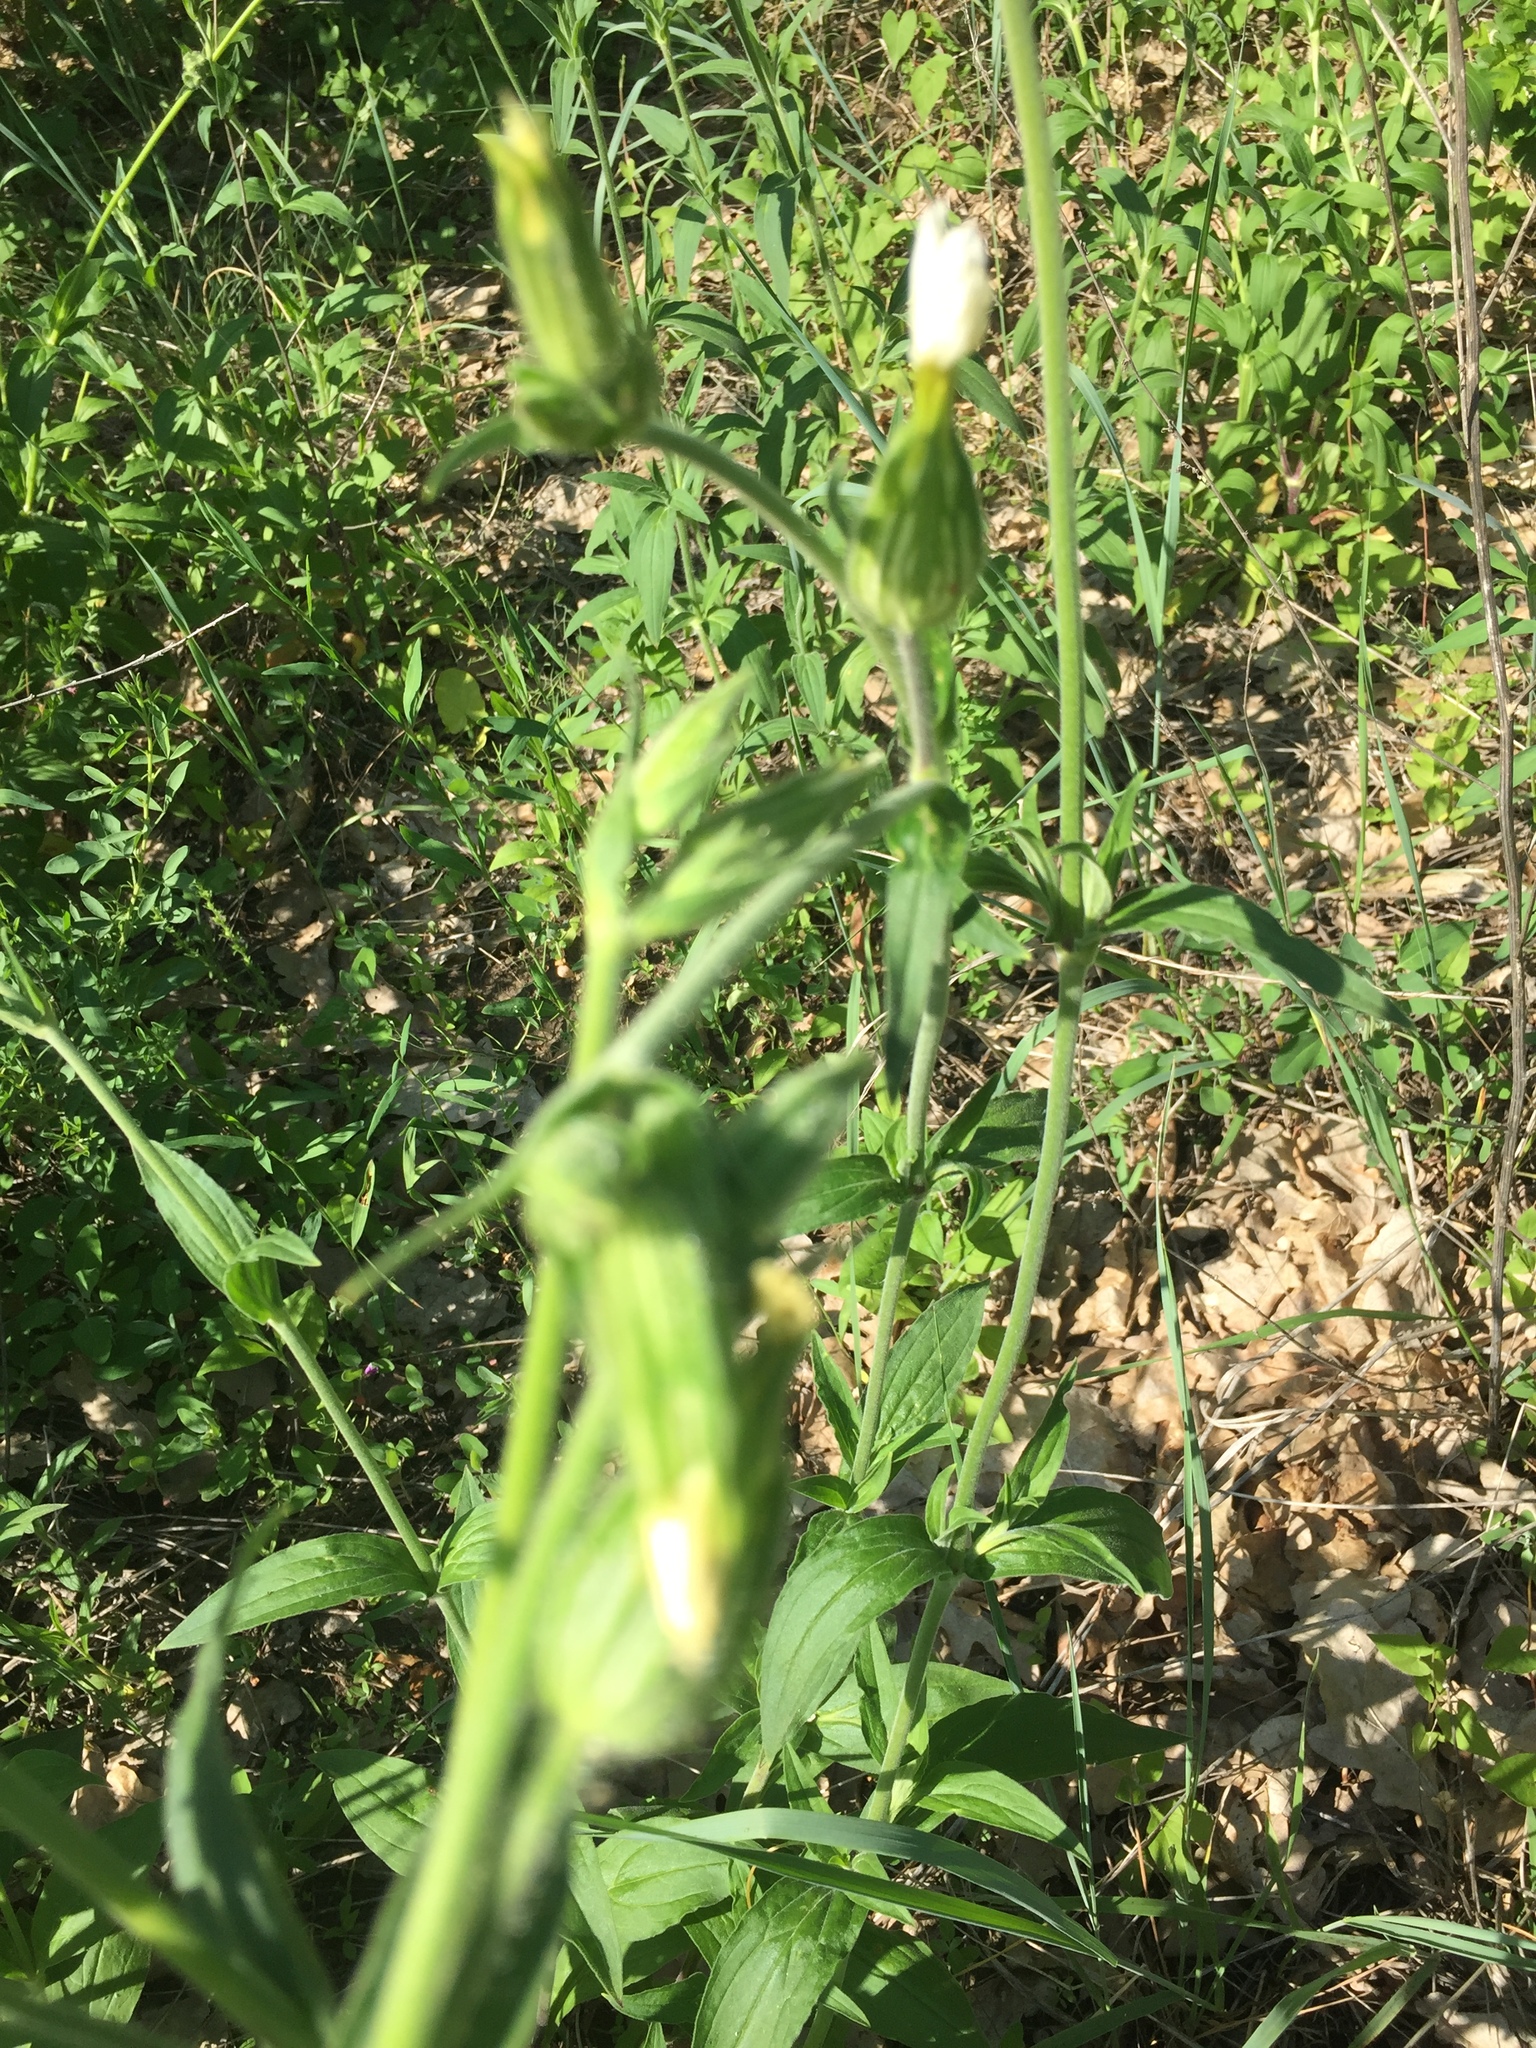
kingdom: Plantae
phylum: Tracheophyta
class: Magnoliopsida
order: Caryophyllales
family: Caryophyllaceae
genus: Silene
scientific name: Silene latifolia
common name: White campion
